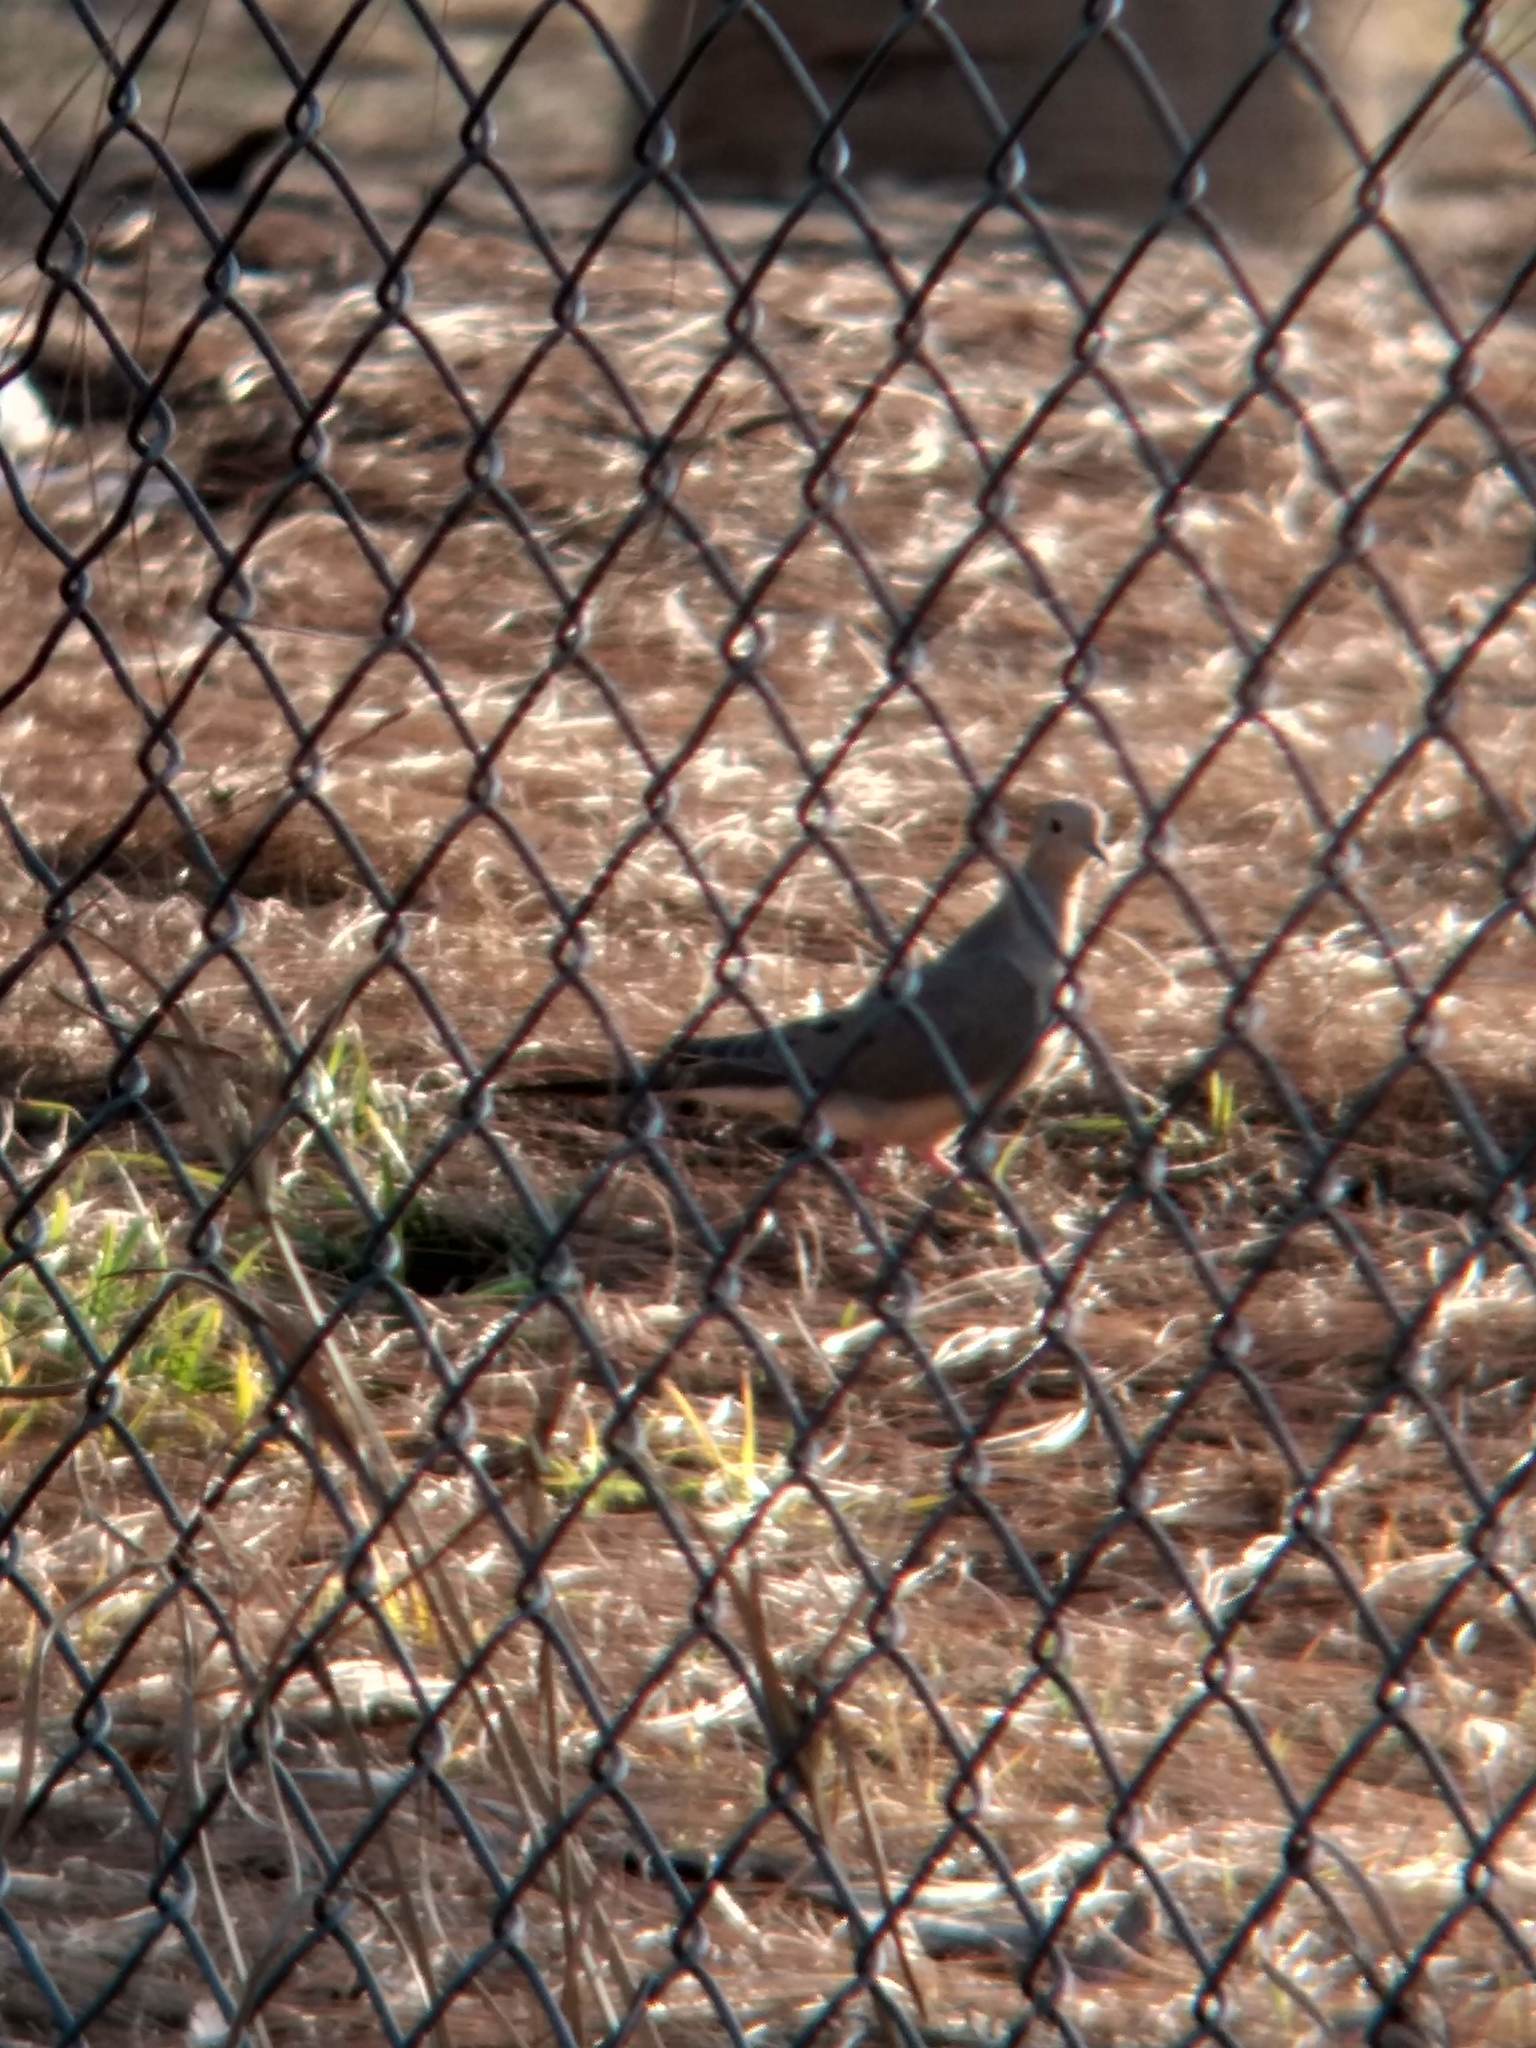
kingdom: Animalia
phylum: Chordata
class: Aves
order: Columbiformes
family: Columbidae
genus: Zenaida
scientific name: Zenaida macroura
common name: Mourning dove
